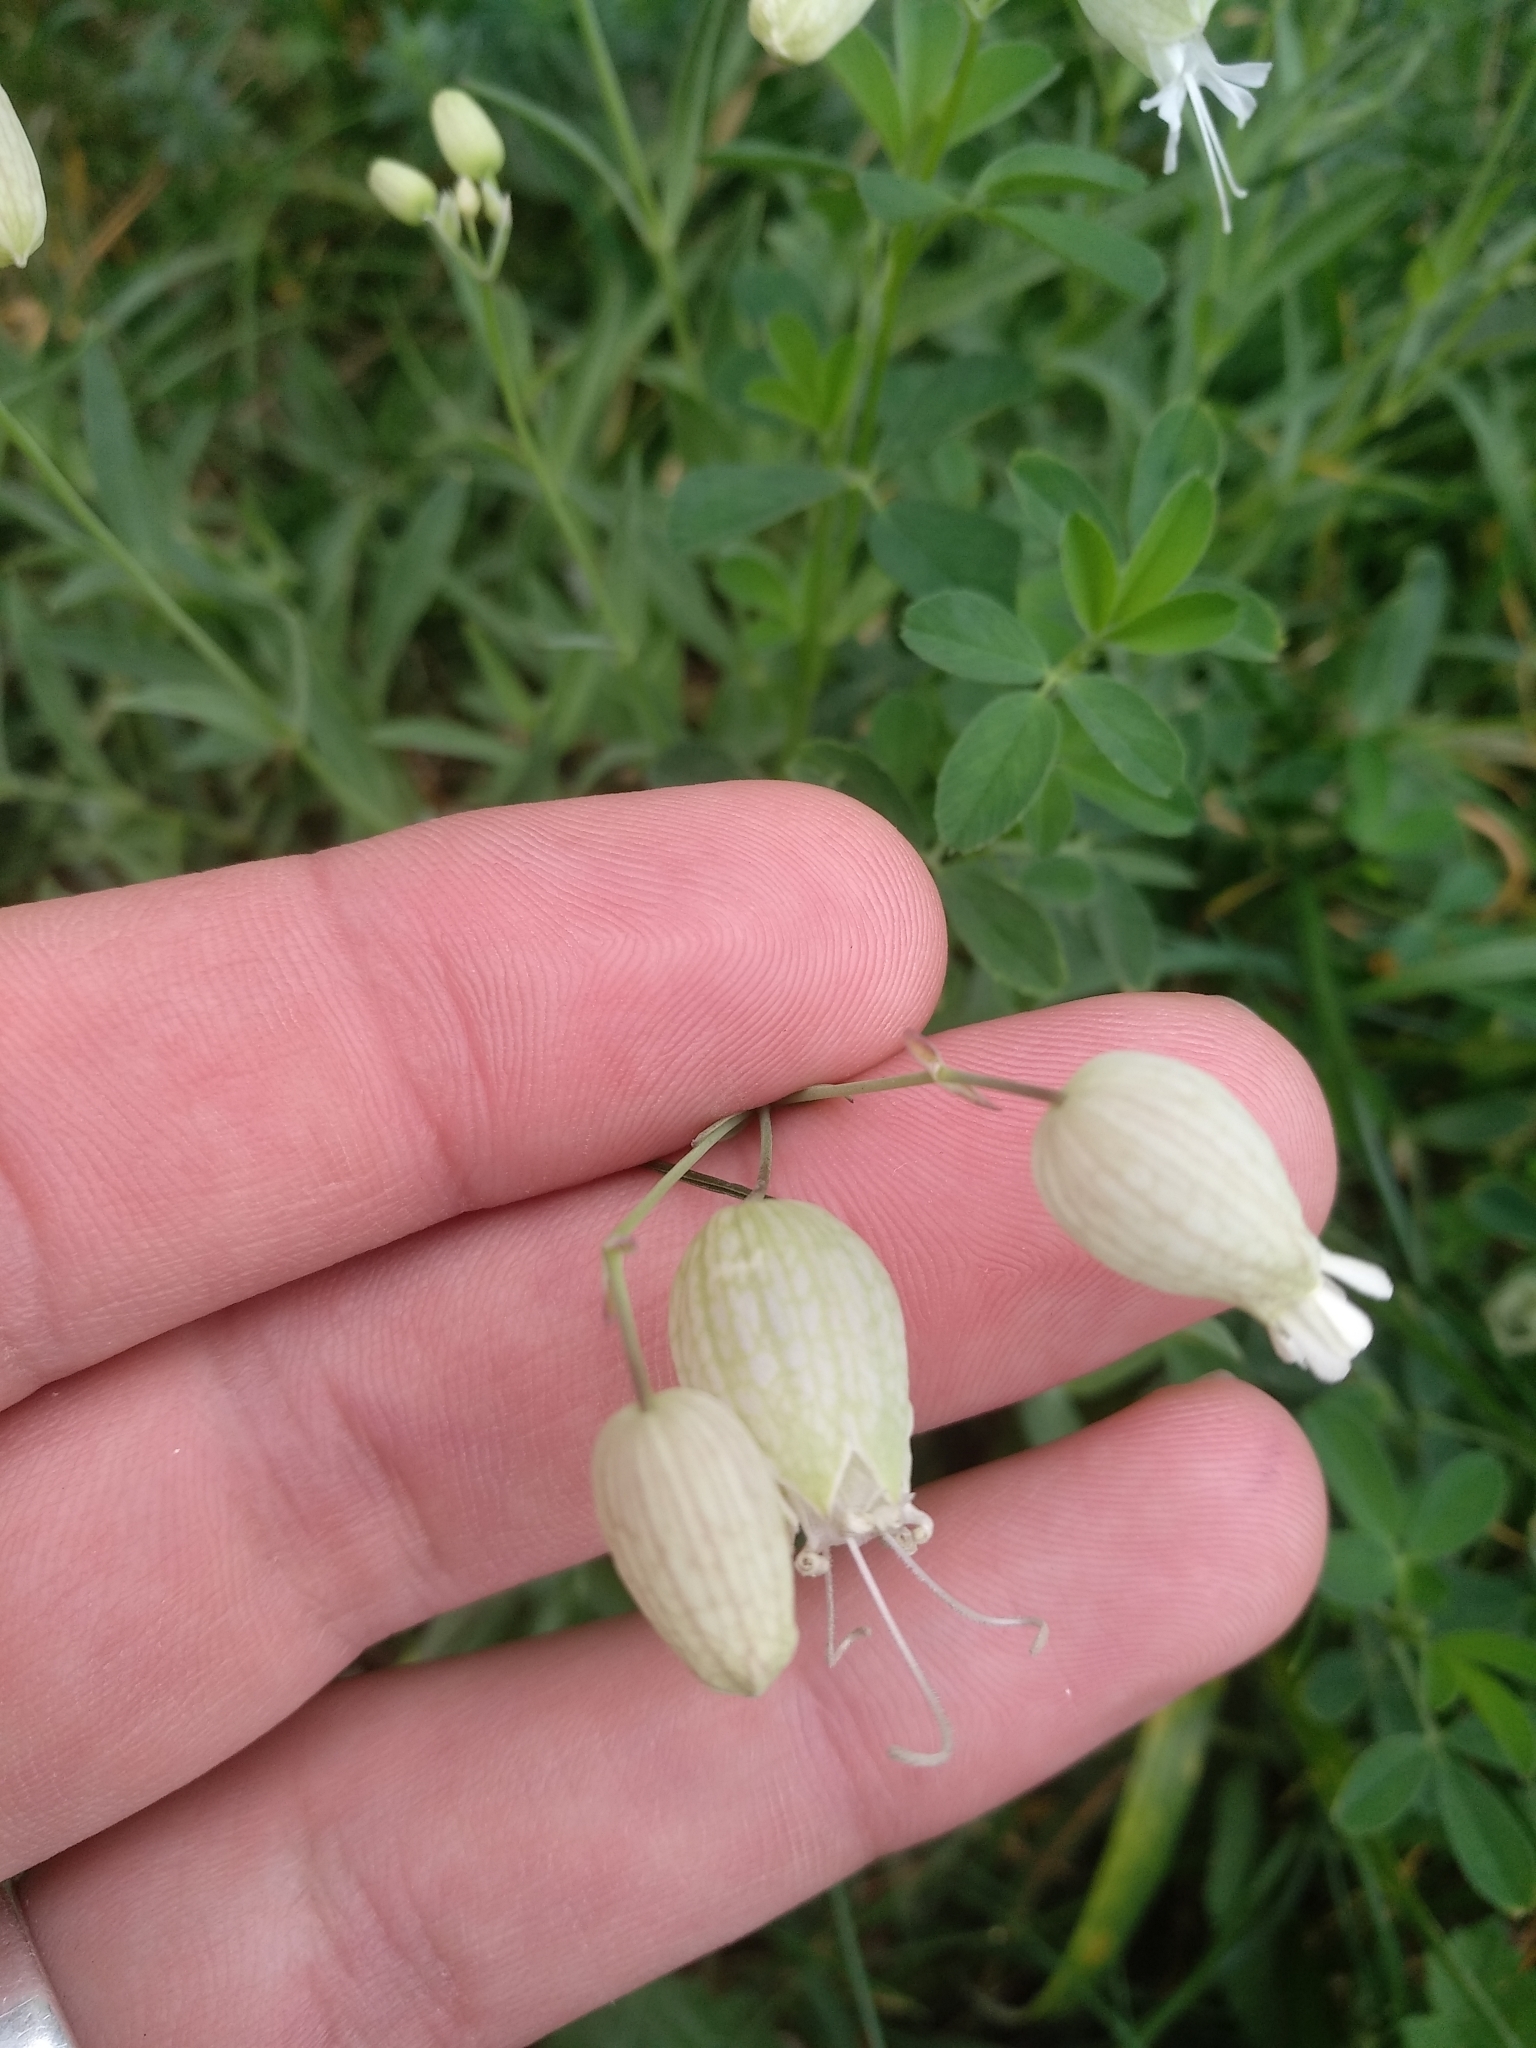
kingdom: Plantae
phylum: Tracheophyta
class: Magnoliopsida
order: Caryophyllales
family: Caryophyllaceae
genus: Silene
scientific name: Silene vulgaris
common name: Bladder campion
